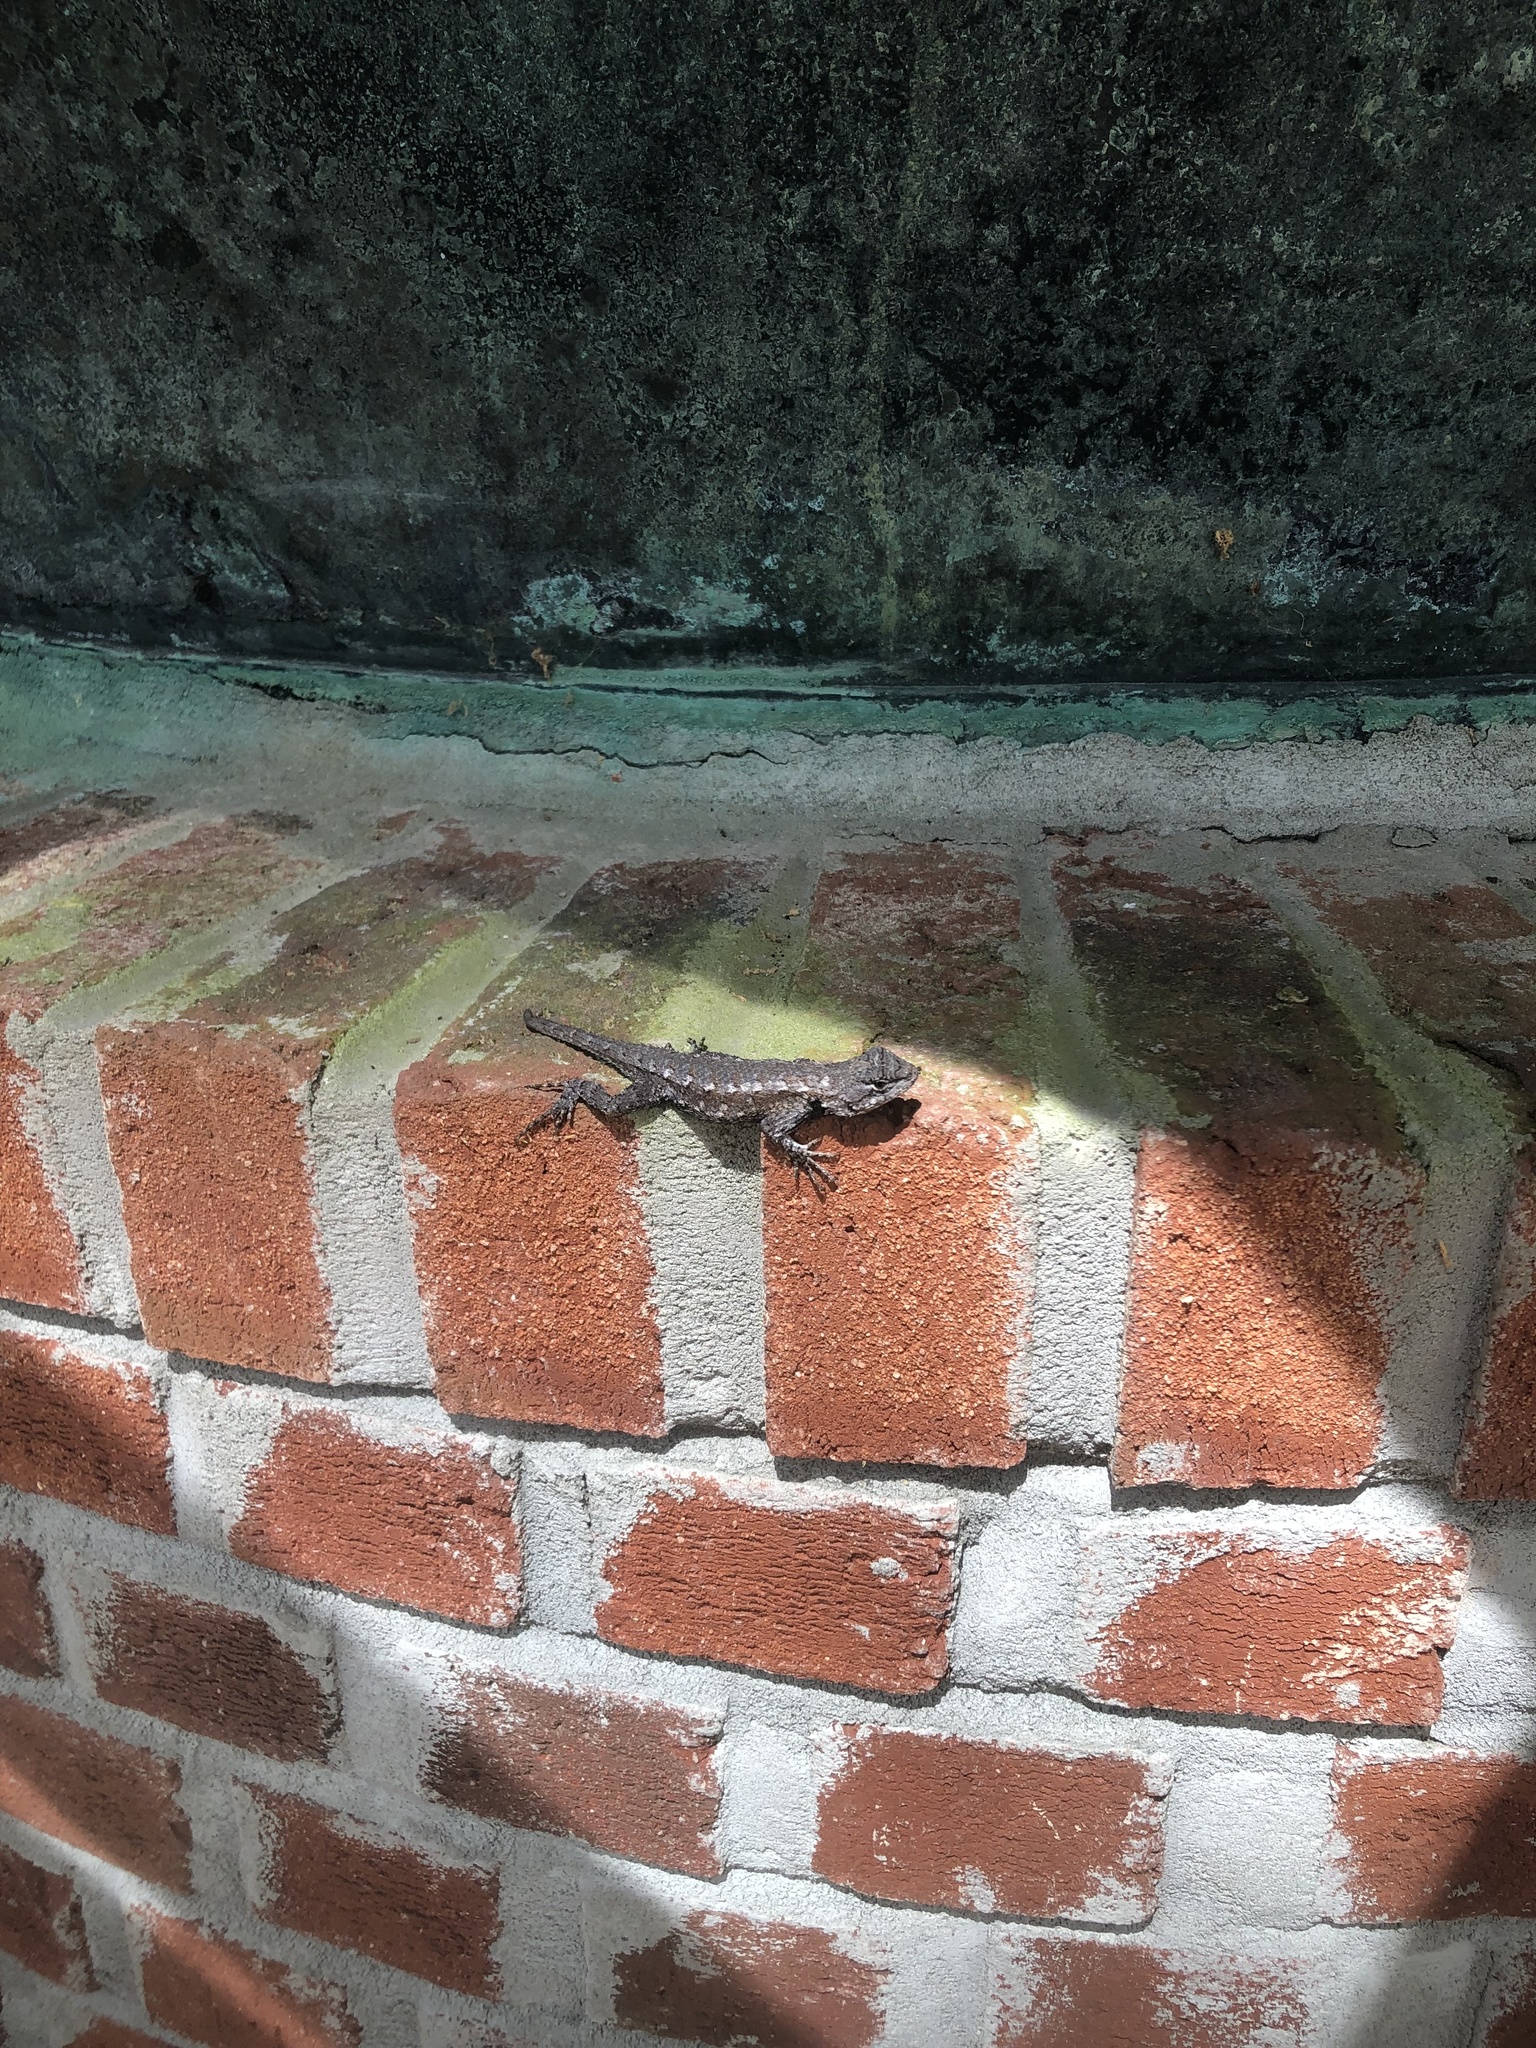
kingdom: Animalia
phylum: Chordata
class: Squamata
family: Phrynosomatidae
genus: Sceloporus
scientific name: Sceloporus undulatus
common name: Eastern fence lizard
